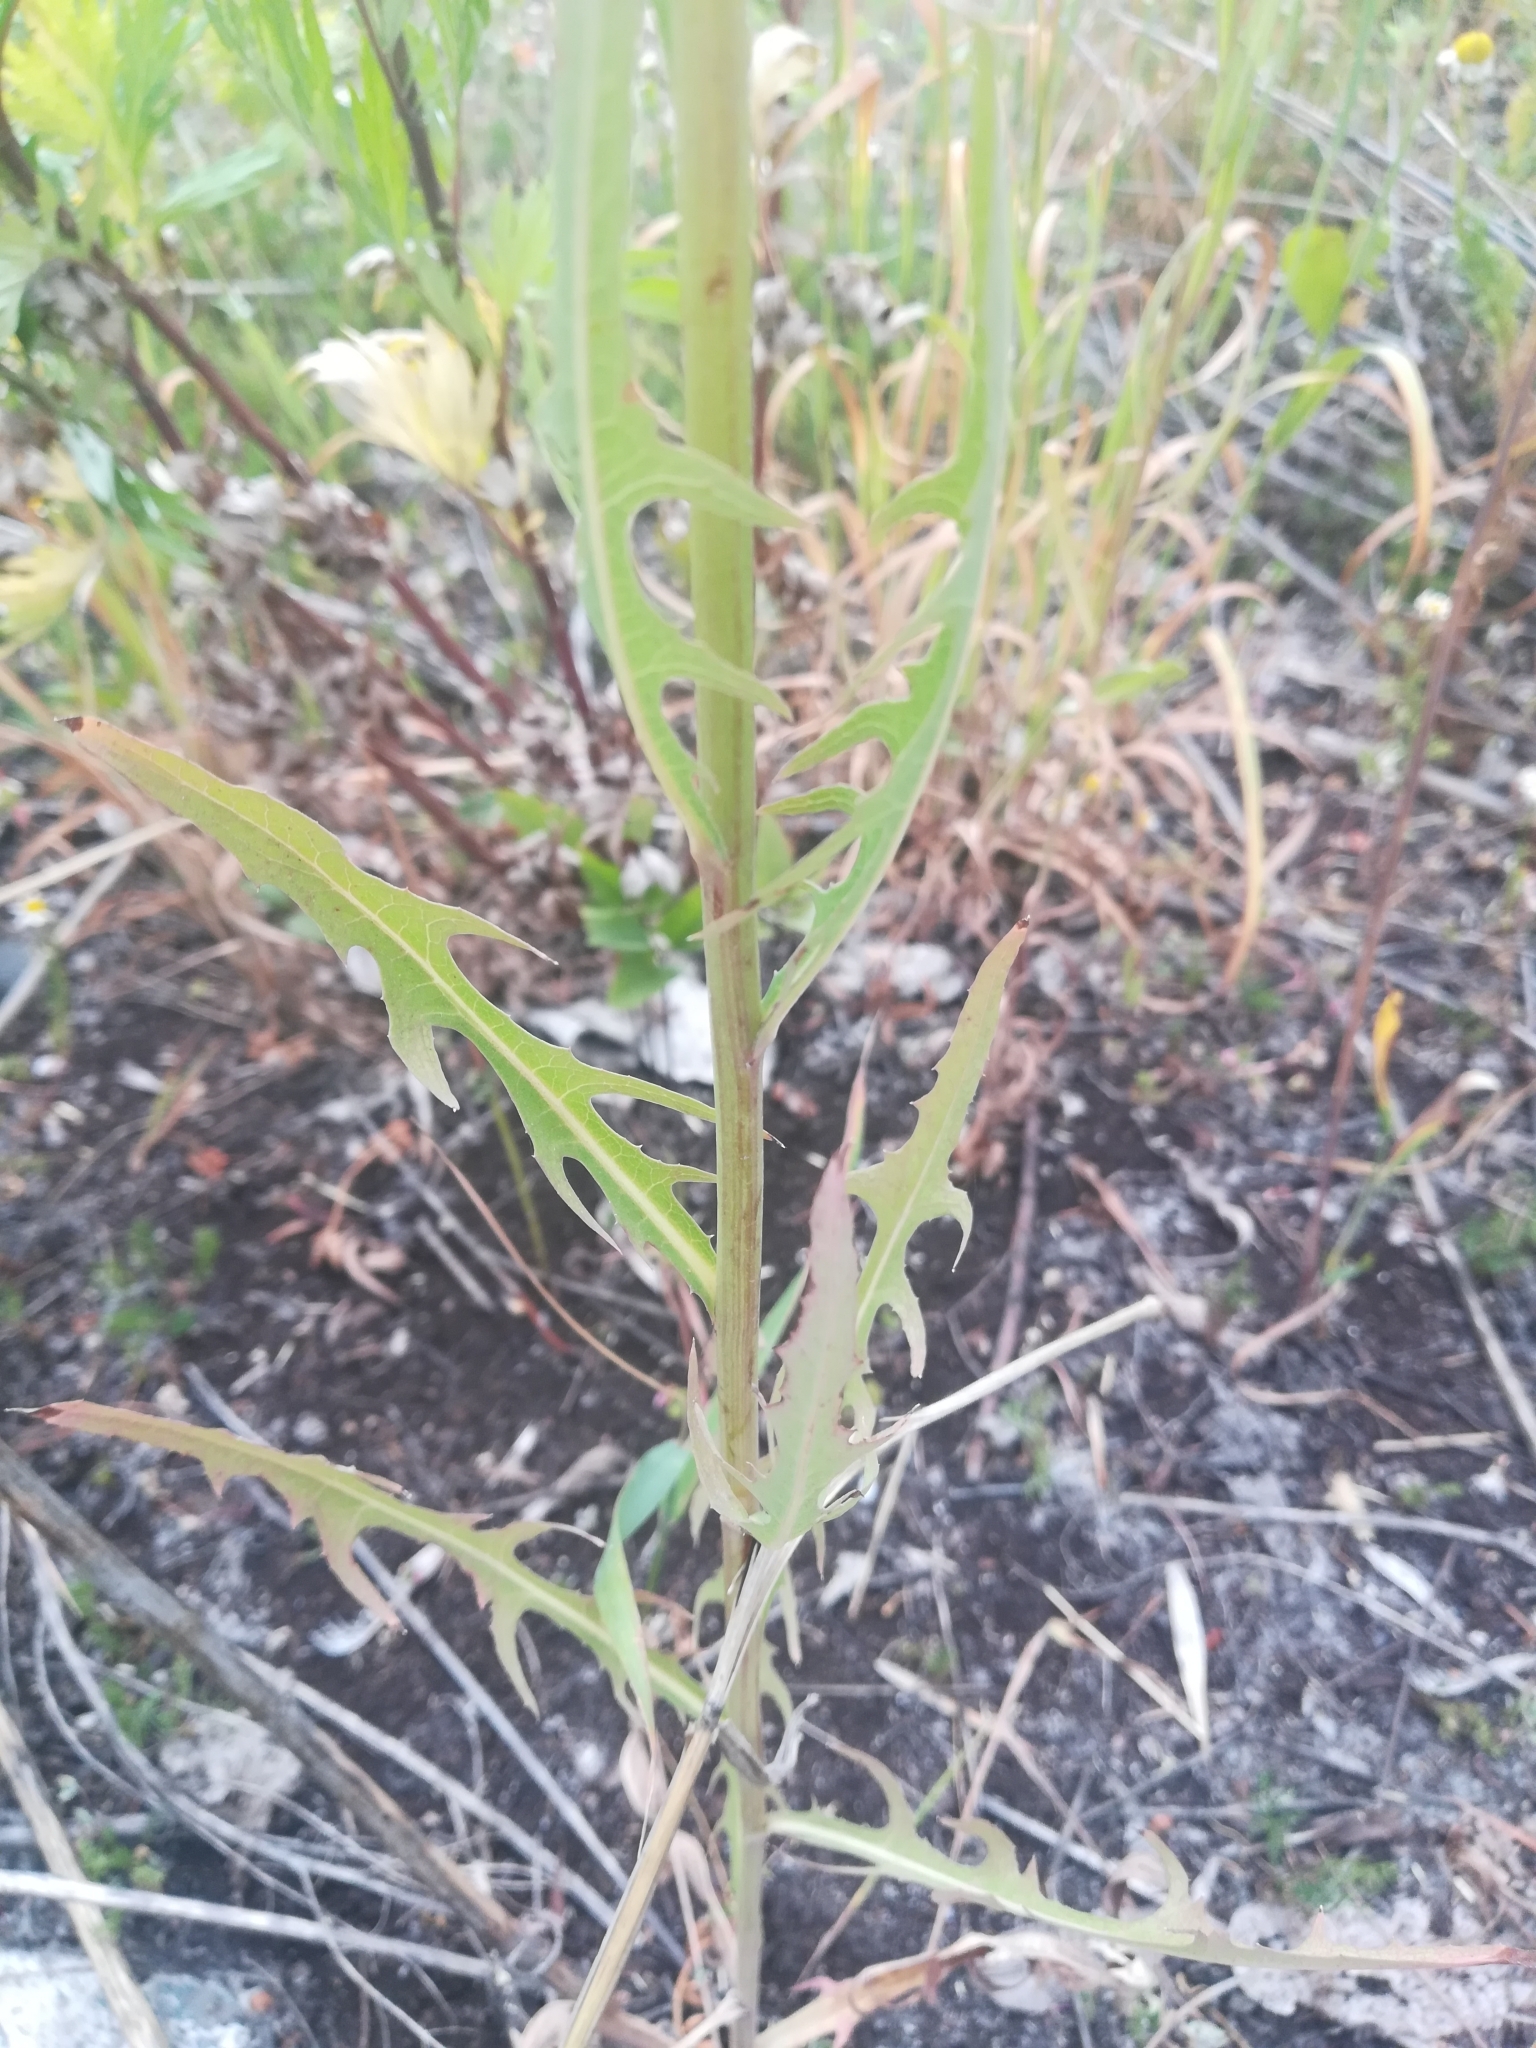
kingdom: Plantae
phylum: Tracheophyta
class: Magnoliopsida
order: Asterales
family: Asteraceae
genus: Lactuca
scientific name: Lactuca sibirica
